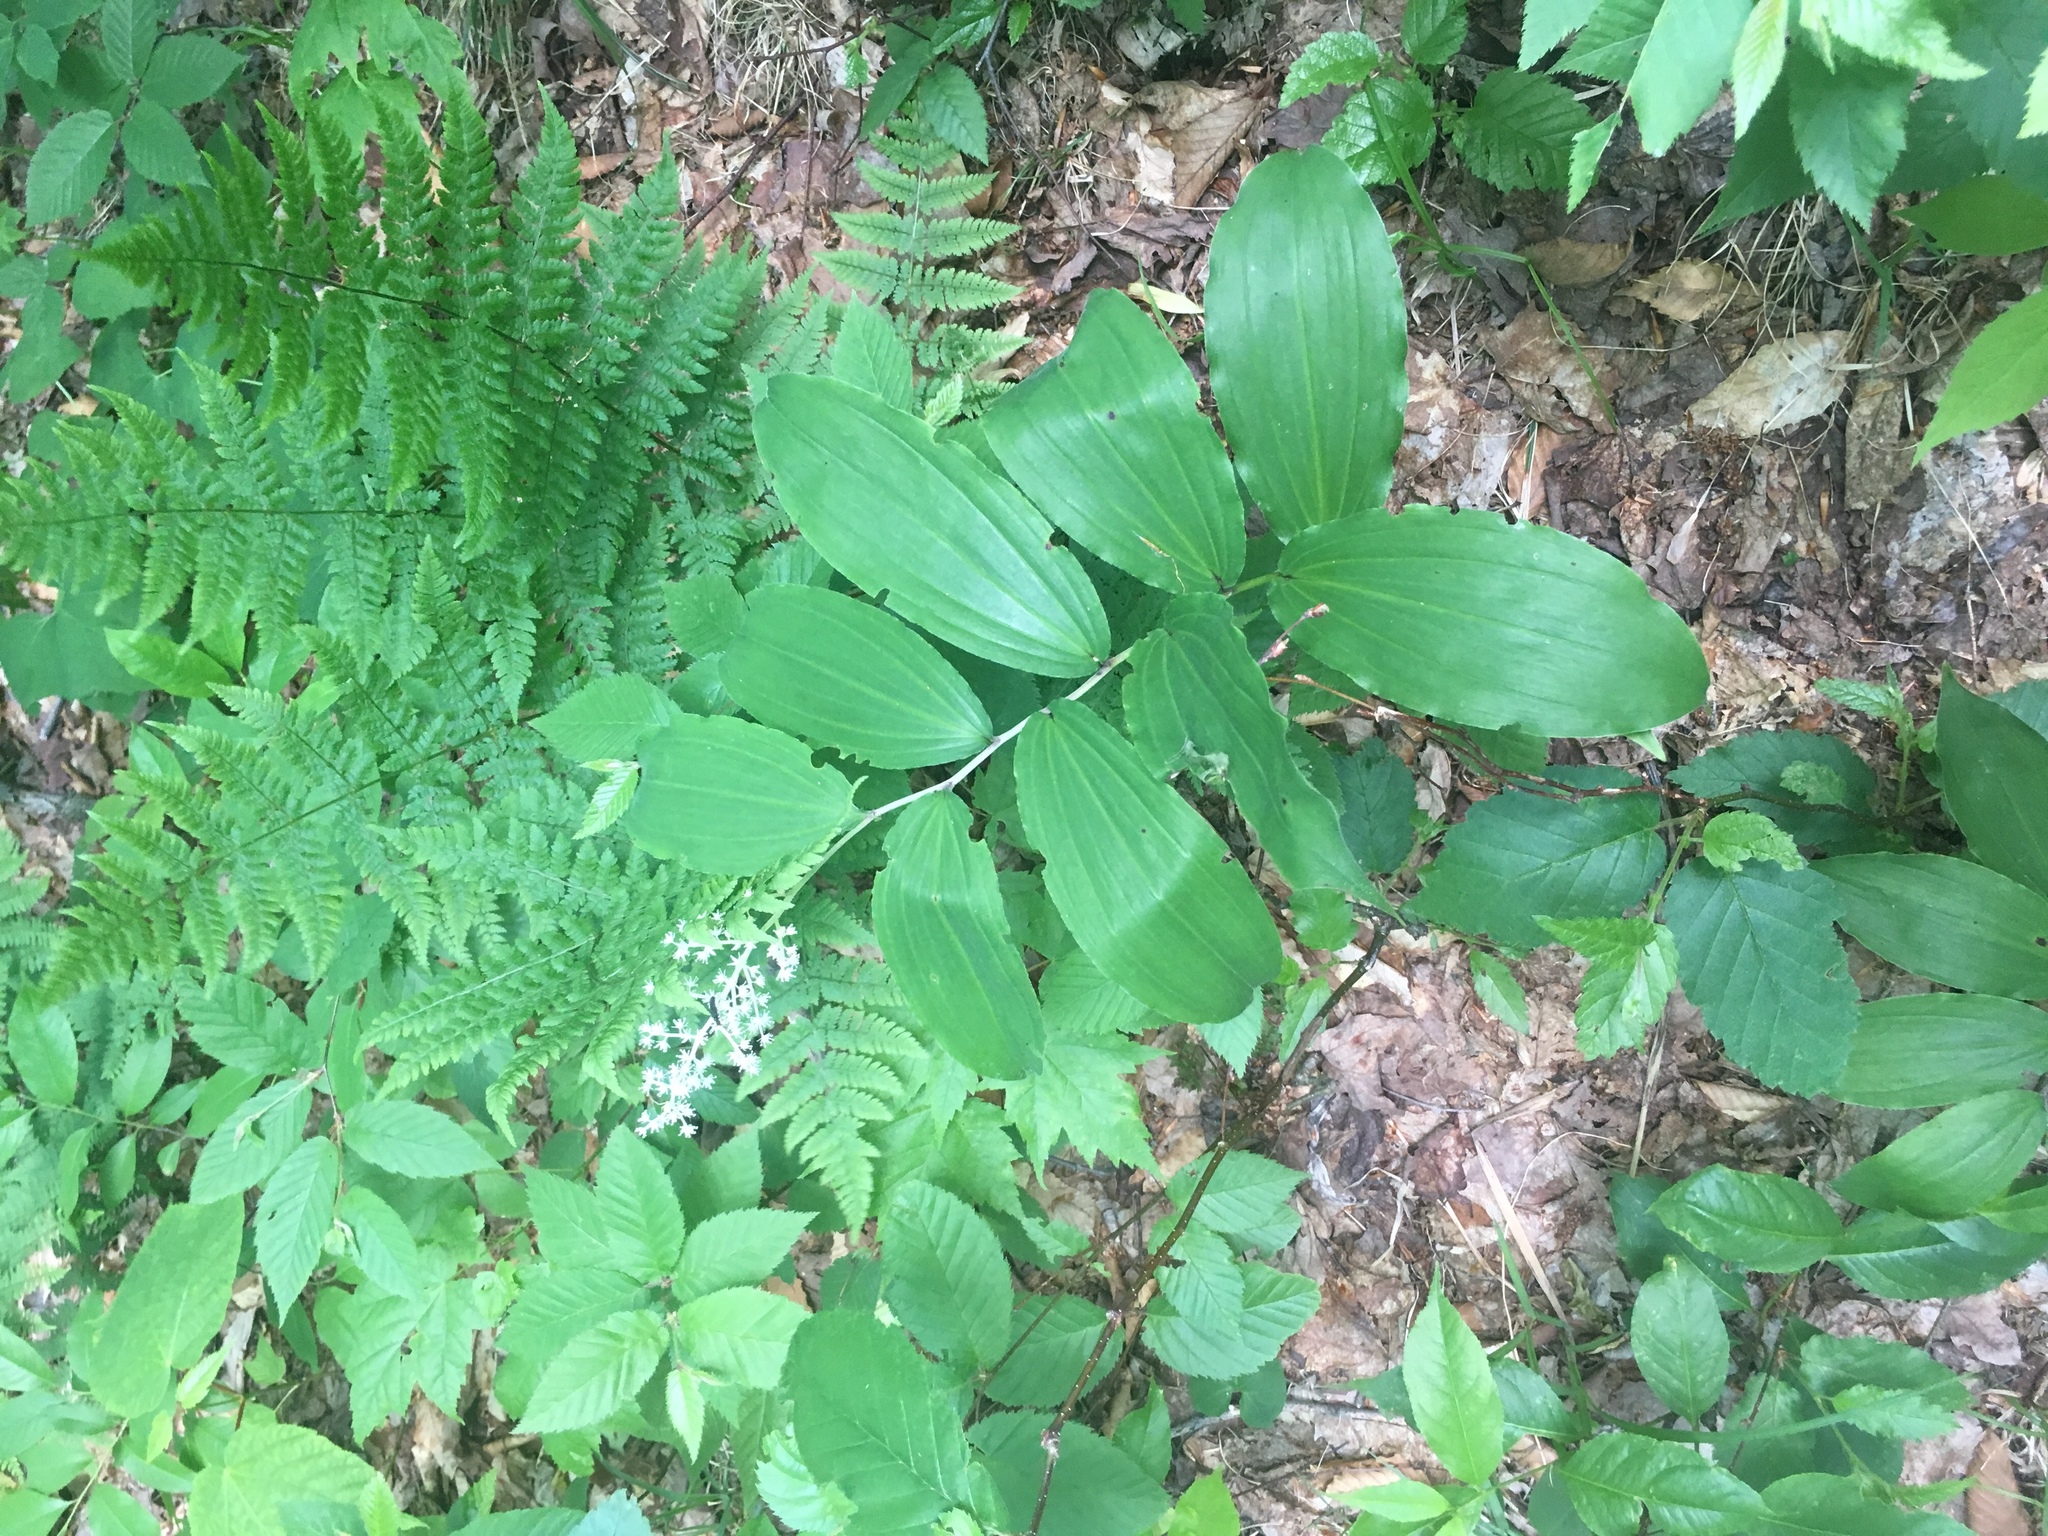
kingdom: Plantae
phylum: Tracheophyta
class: Liliopsida
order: Asparagales
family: Asparagaceae
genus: Maianthemum
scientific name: Maianthemum racemosum
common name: False spikenard
